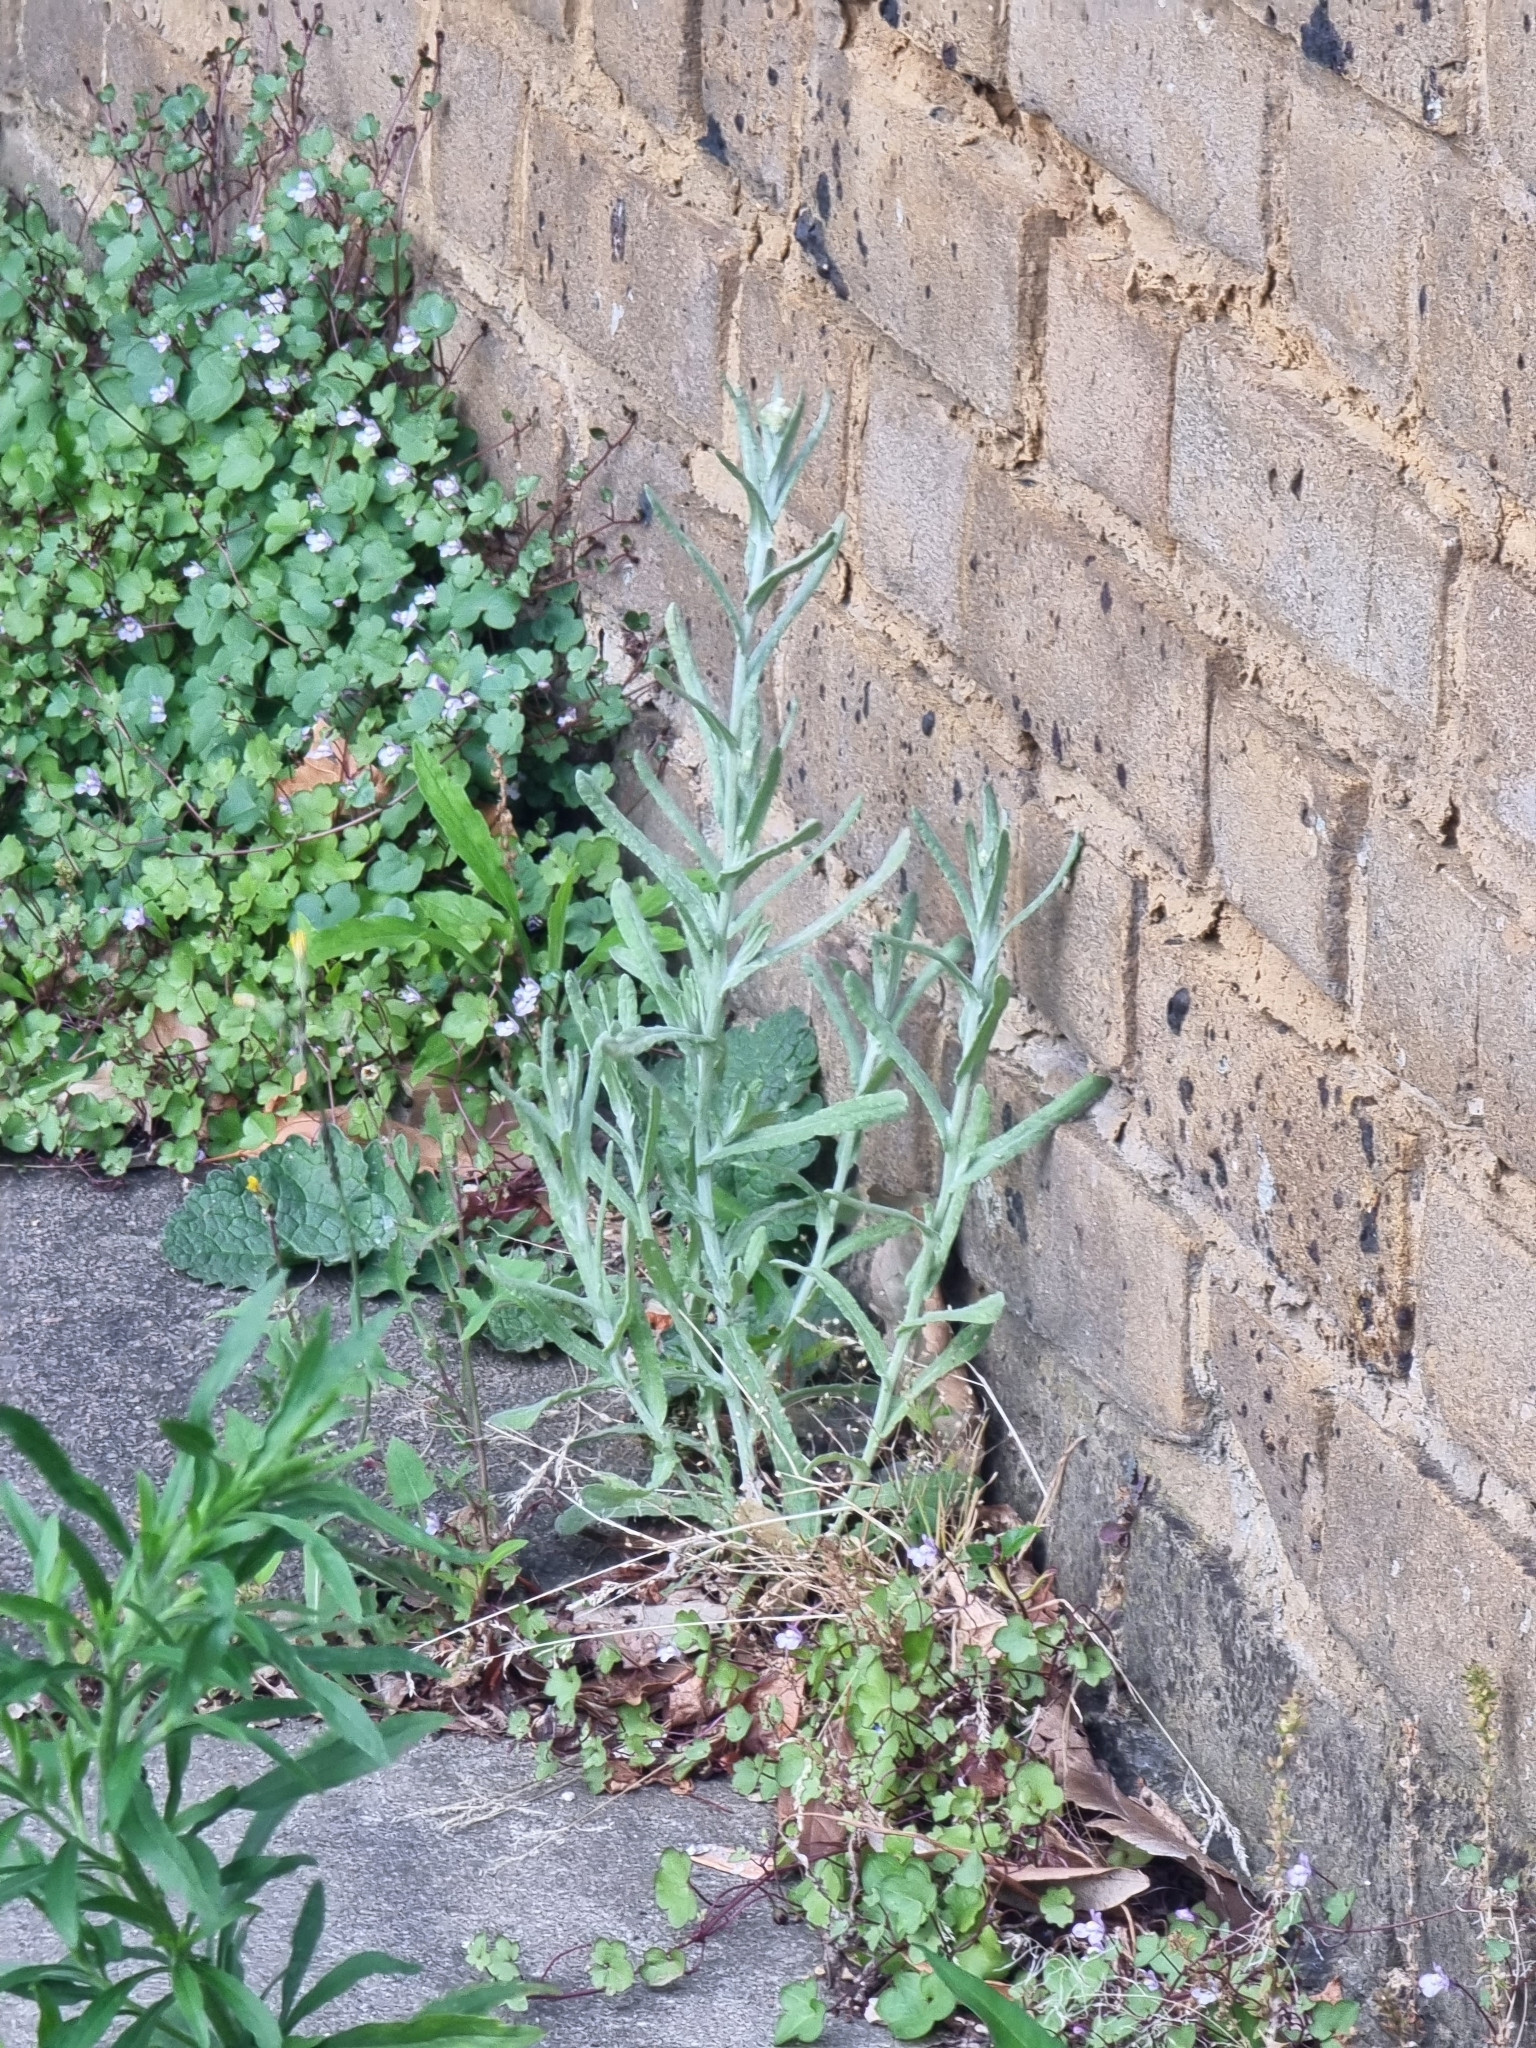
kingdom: Plantae
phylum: Tracheophyta
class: Magnoliopsida
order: Asterales
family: Asteraceae
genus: Helichrysum
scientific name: Helichrysum luteoalbum
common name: Daisy
